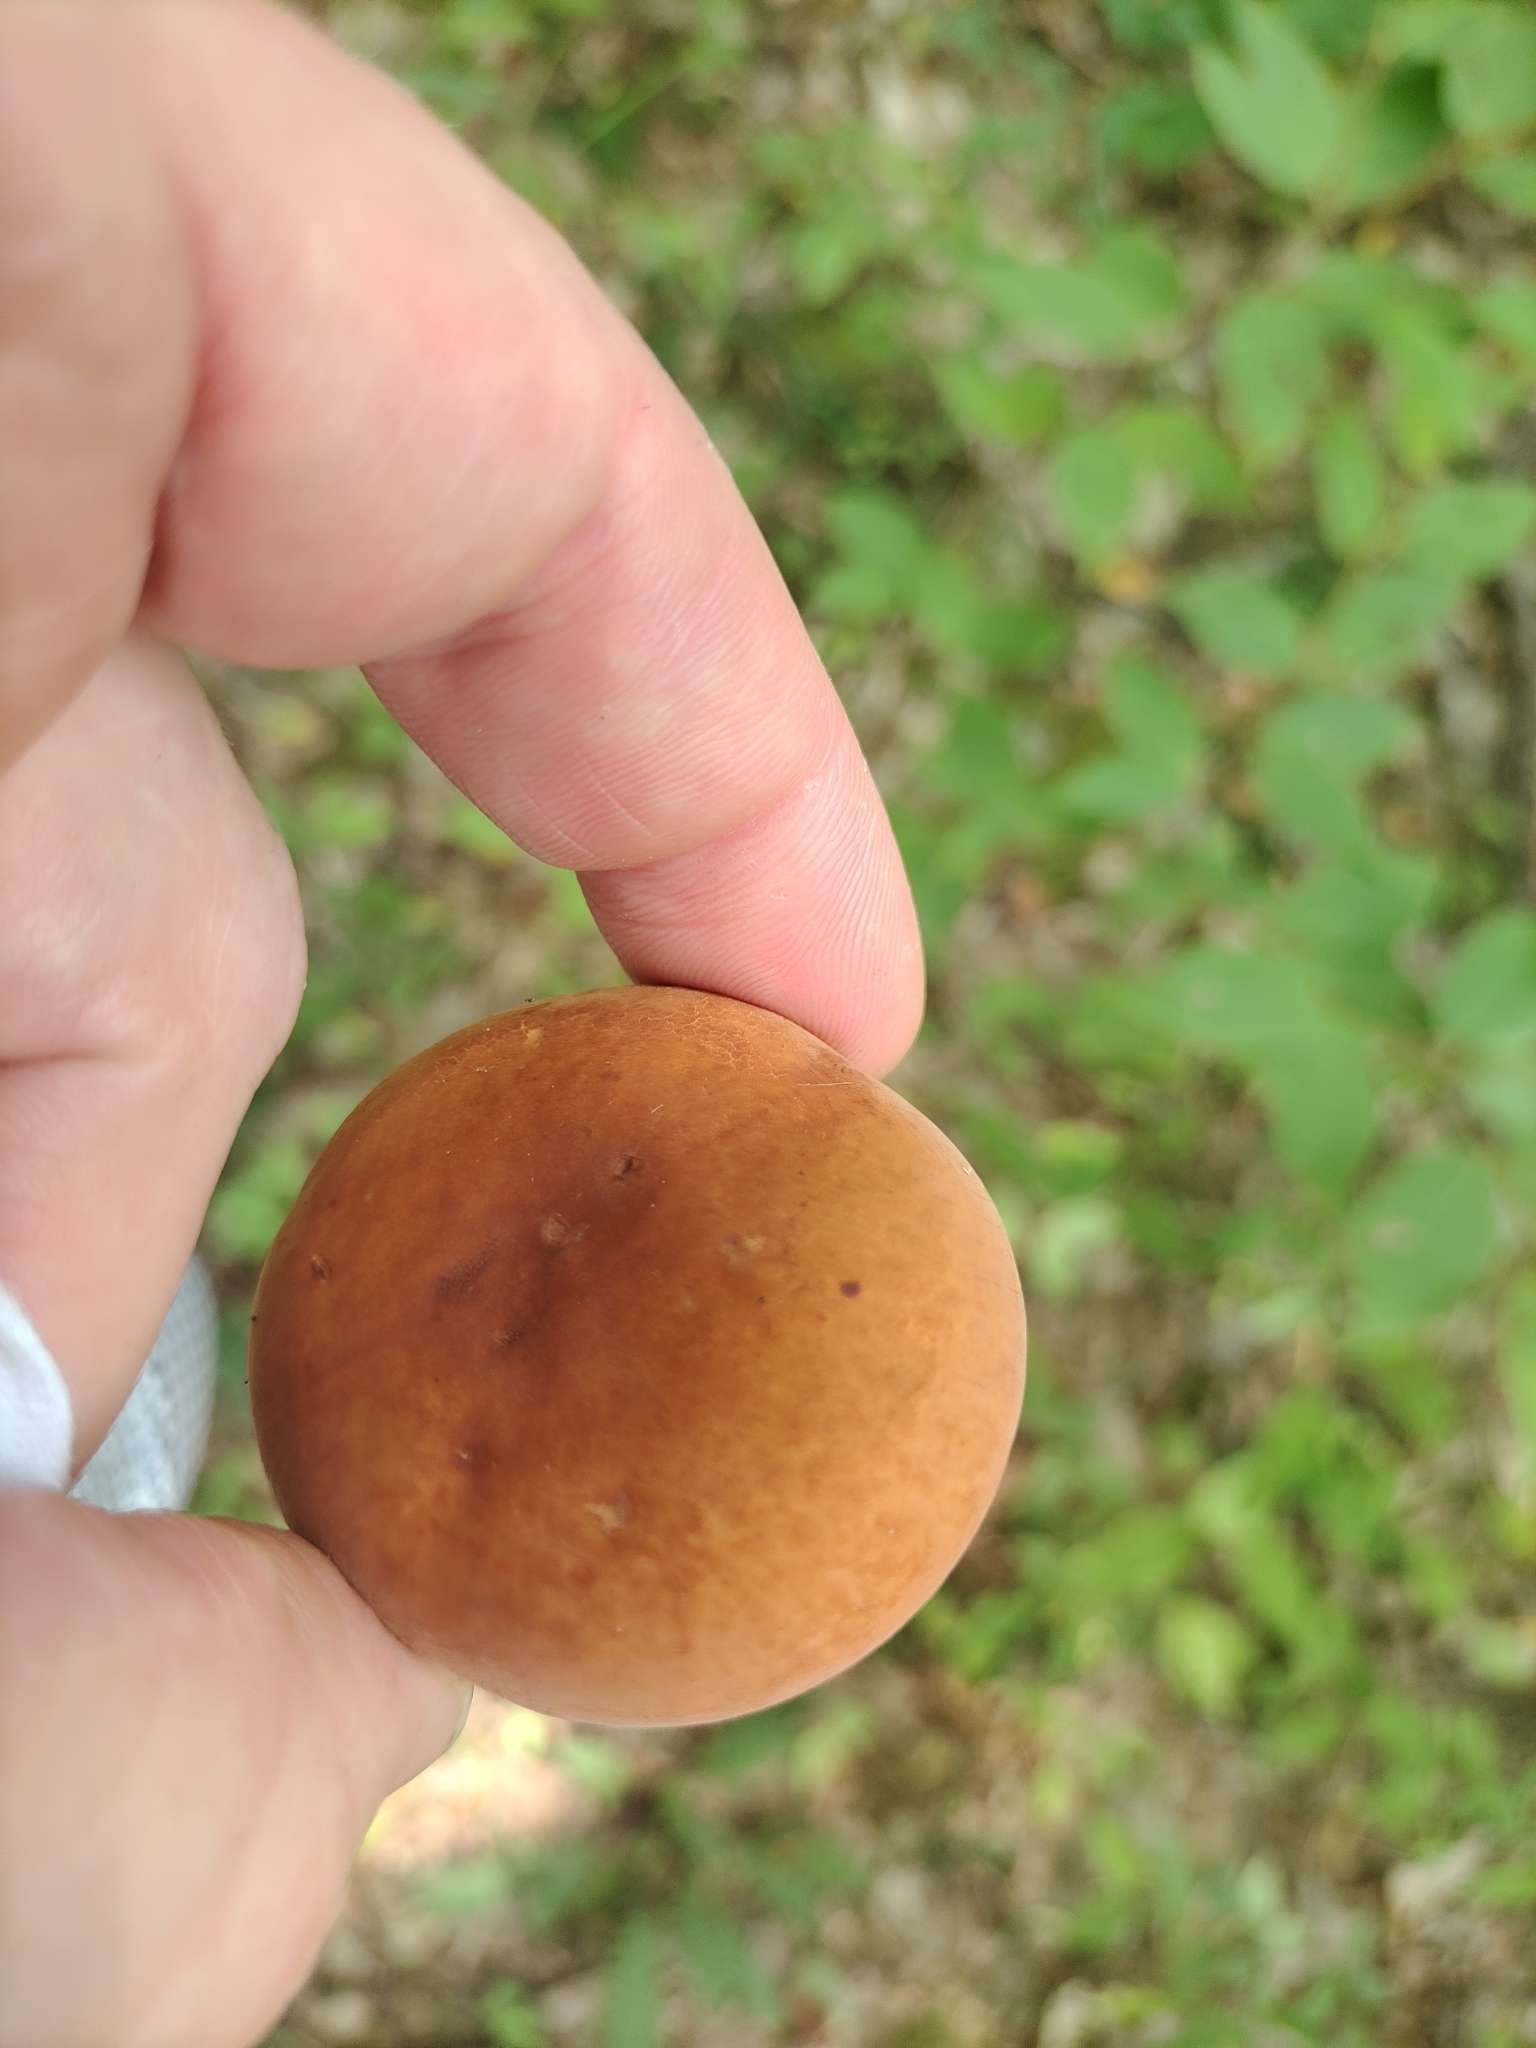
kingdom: Fungi
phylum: Basidiomycota
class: Agaricomycetes
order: Russulales
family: Russulaceae
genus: Lactifluus
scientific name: Lactifluus volemus
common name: Fishy milkcap
